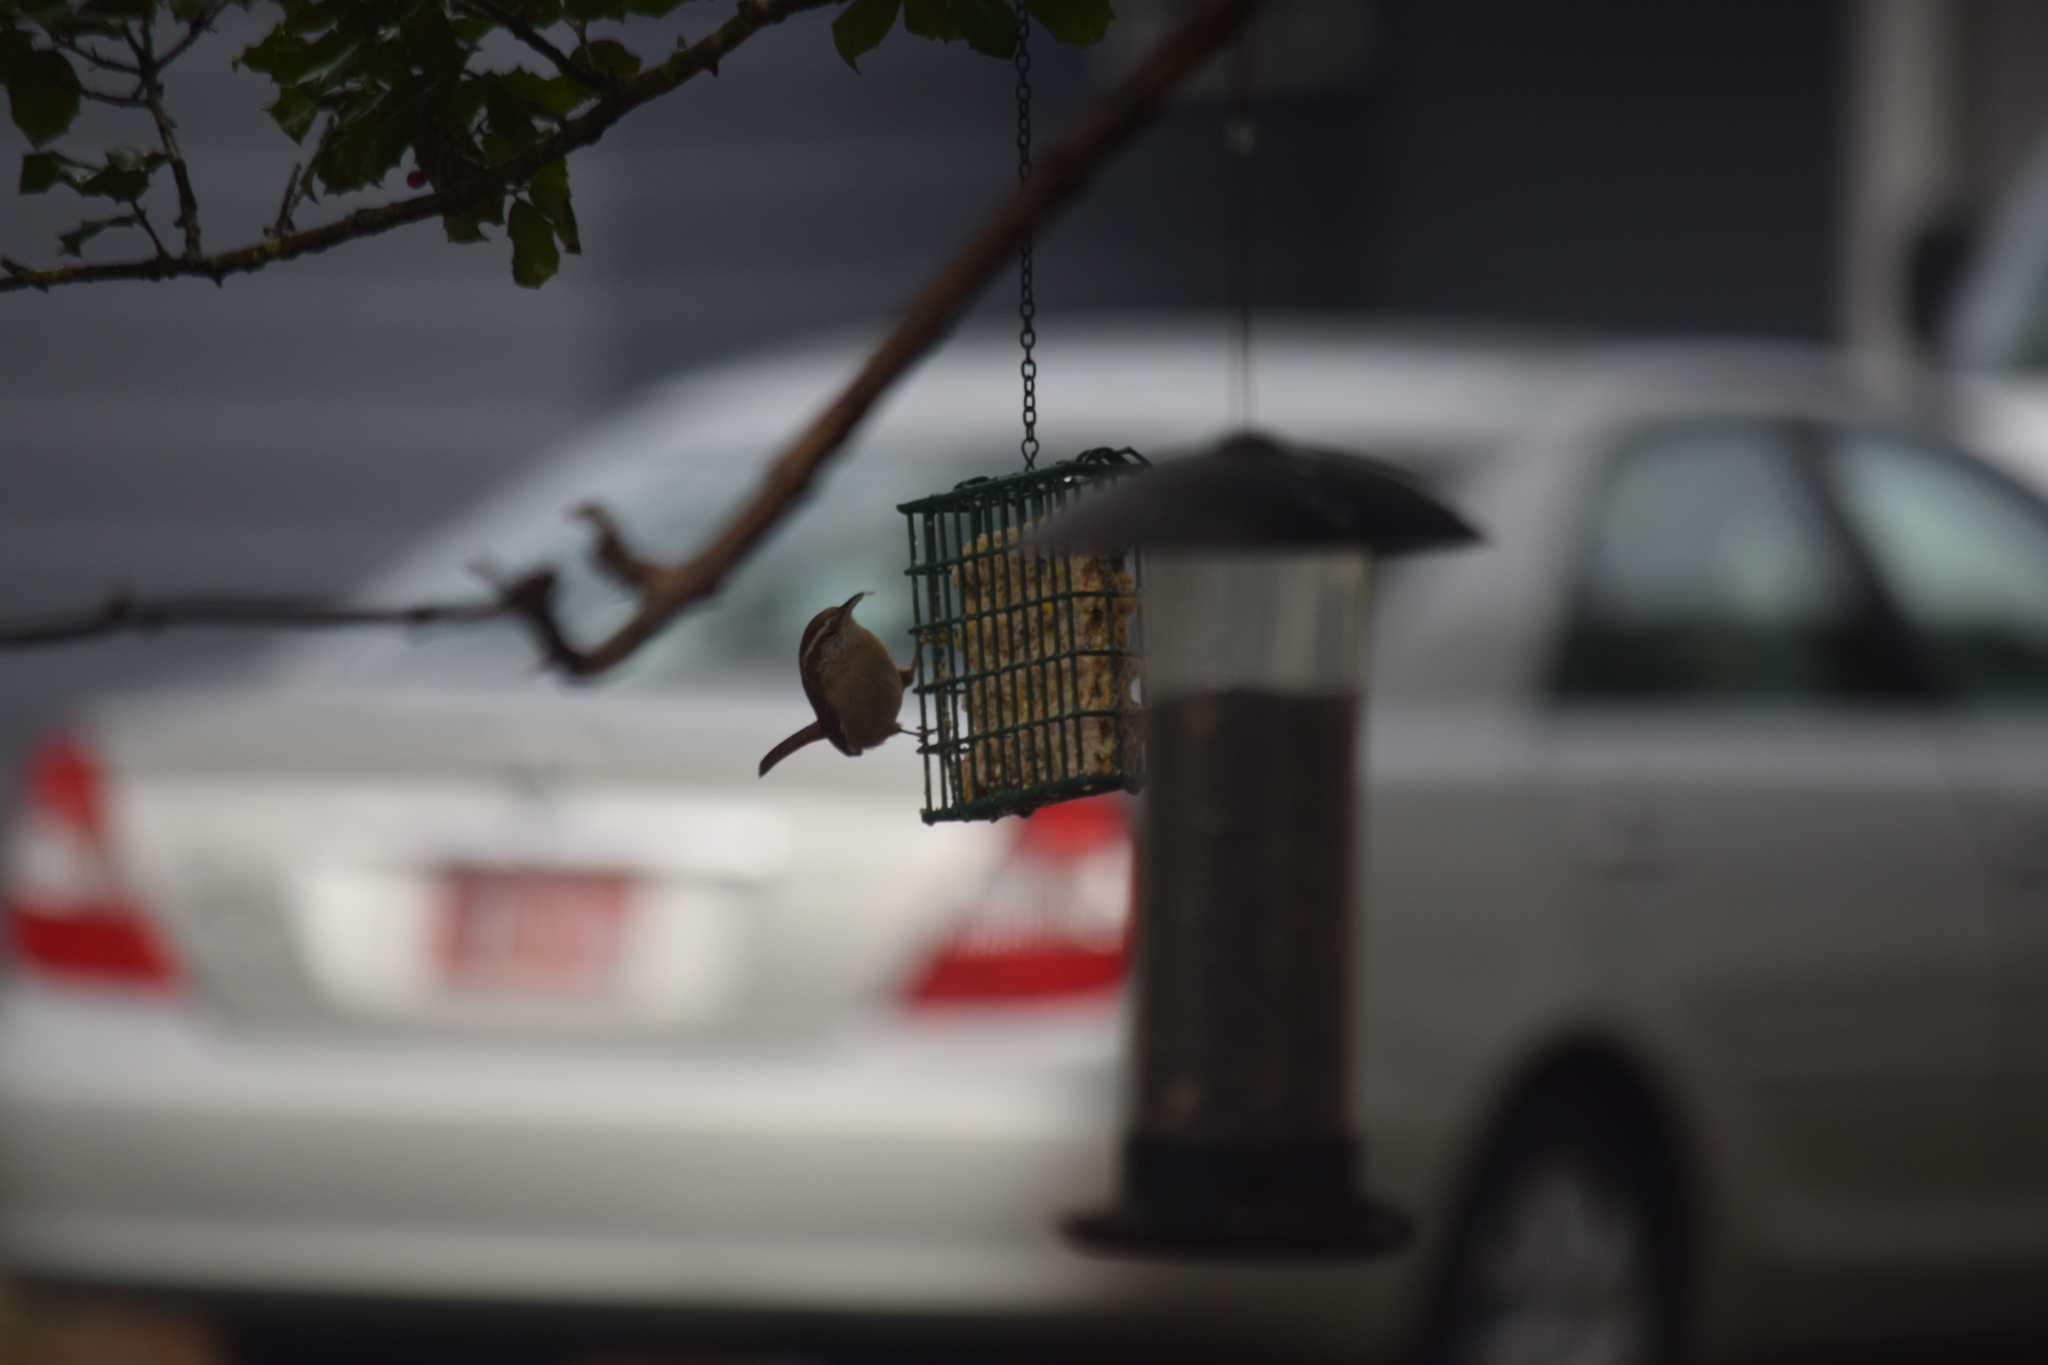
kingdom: Animalia
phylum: Chordata
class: Aves
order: Passeriformes
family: Troglodytidae
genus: Thryothorus
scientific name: Thryothorus ludovicianus
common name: Carolina wren
